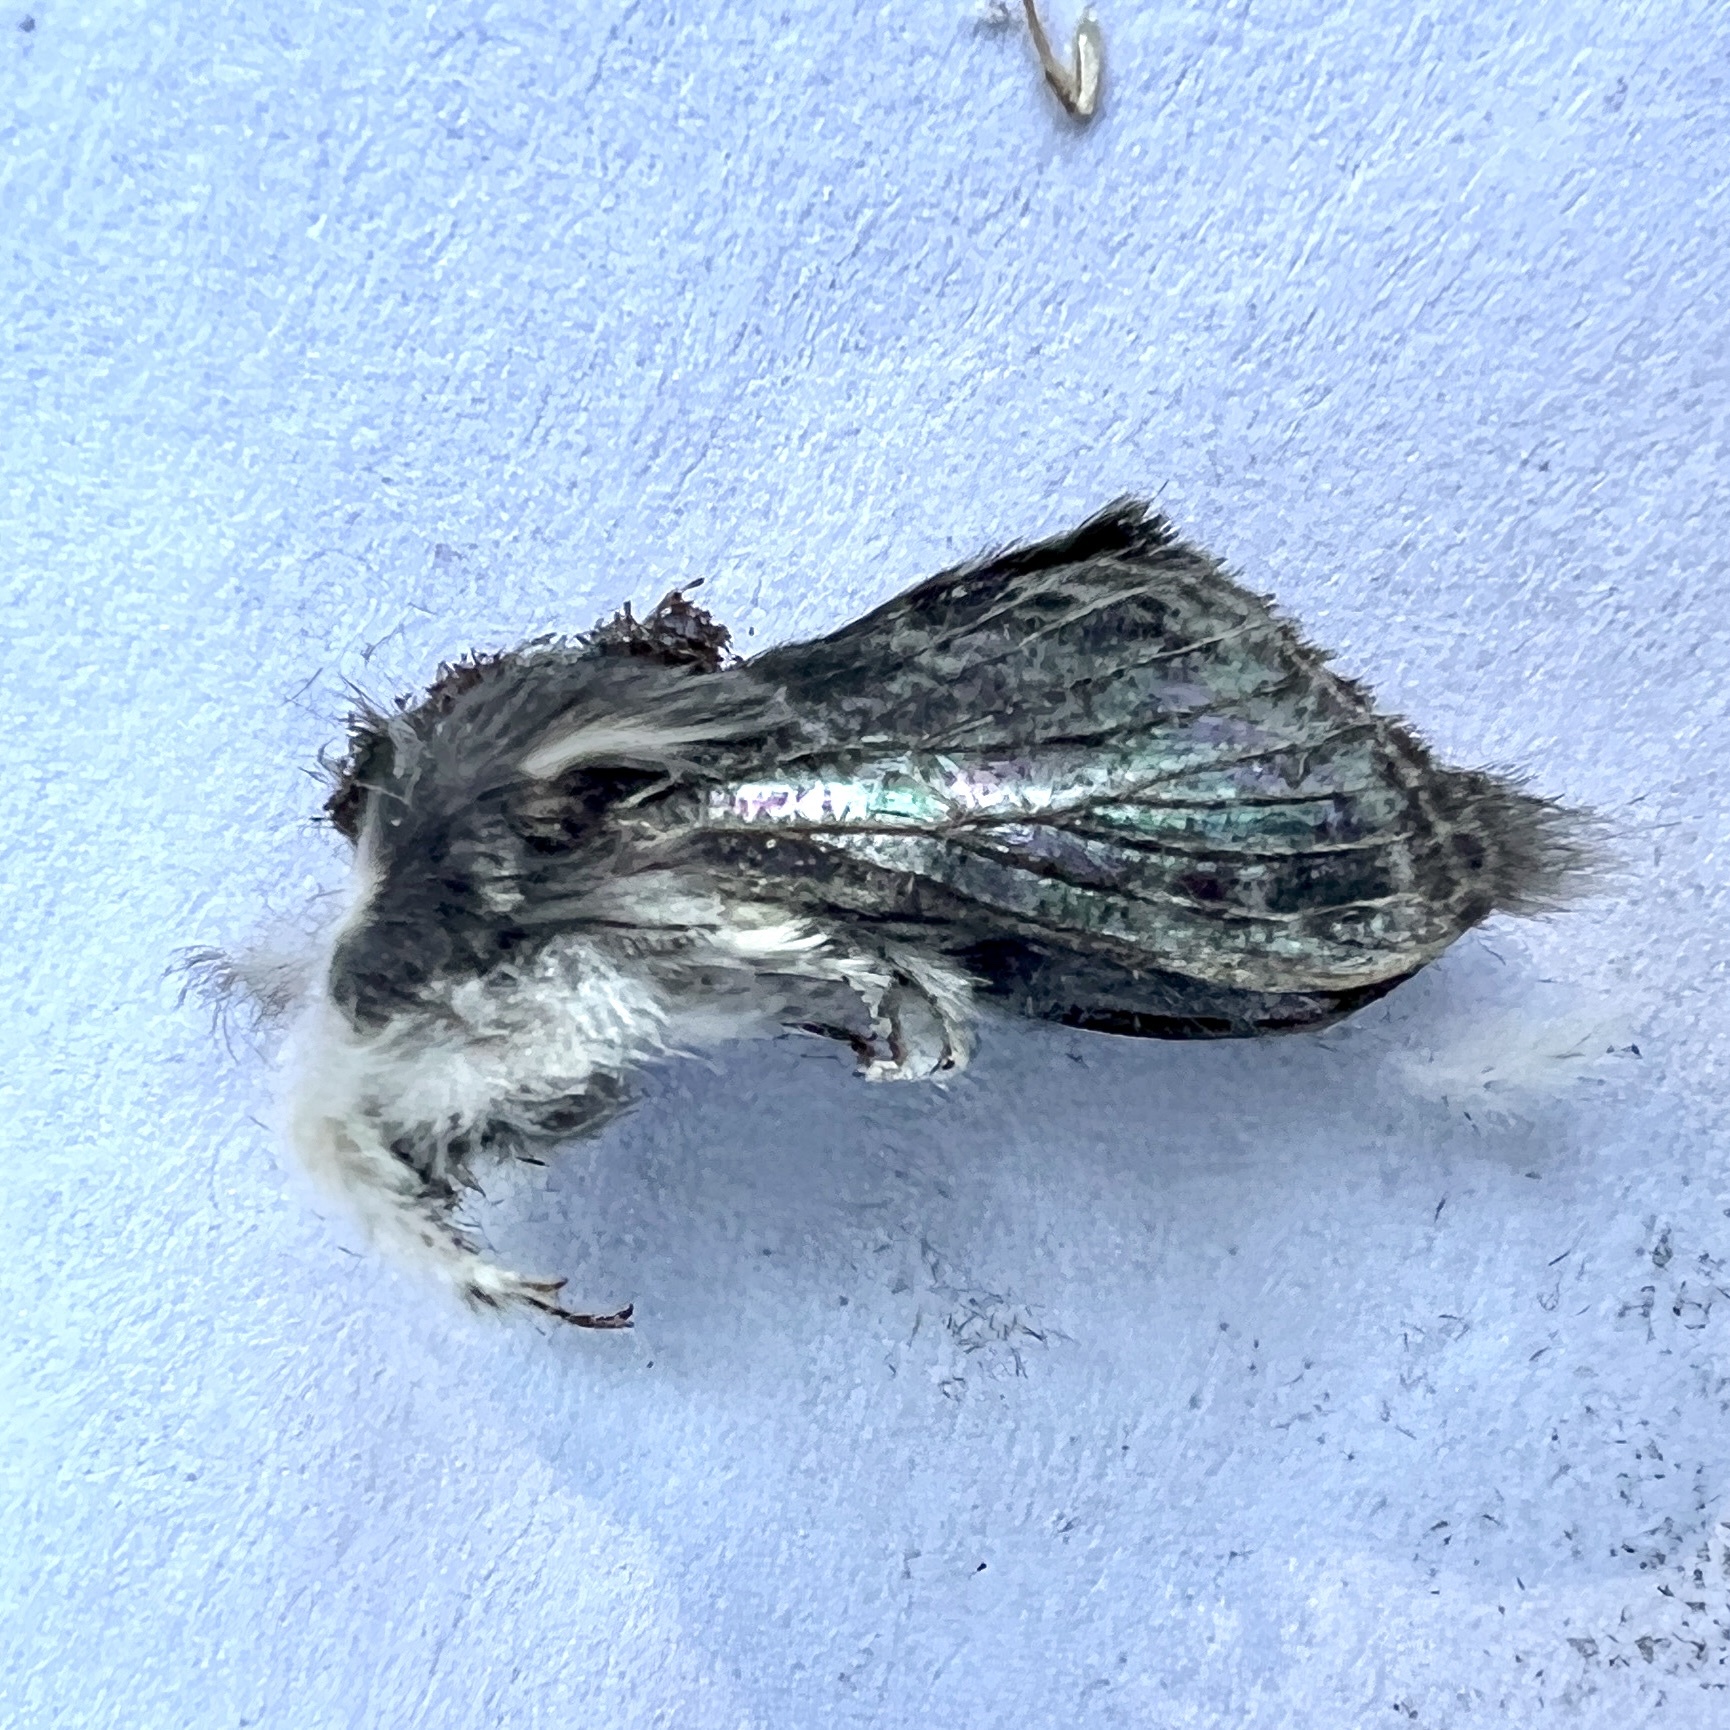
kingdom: Animalia
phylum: Arthropoda
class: Insecta
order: Lepidoptera
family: Lasiocampidae
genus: Tolype
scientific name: Tolype laricis
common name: Larch tolype moth
